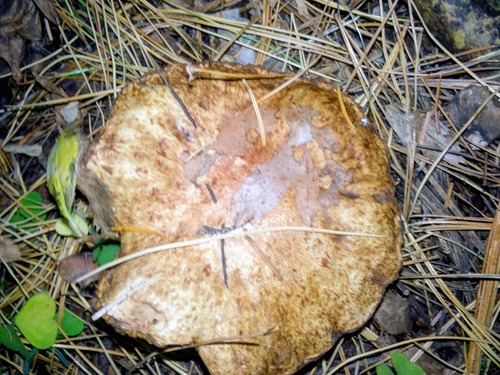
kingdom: Fungi
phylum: Basidiomycota
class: Agaricomycetes
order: Boletales
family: Suillaceae
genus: Suillus
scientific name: Suillus
